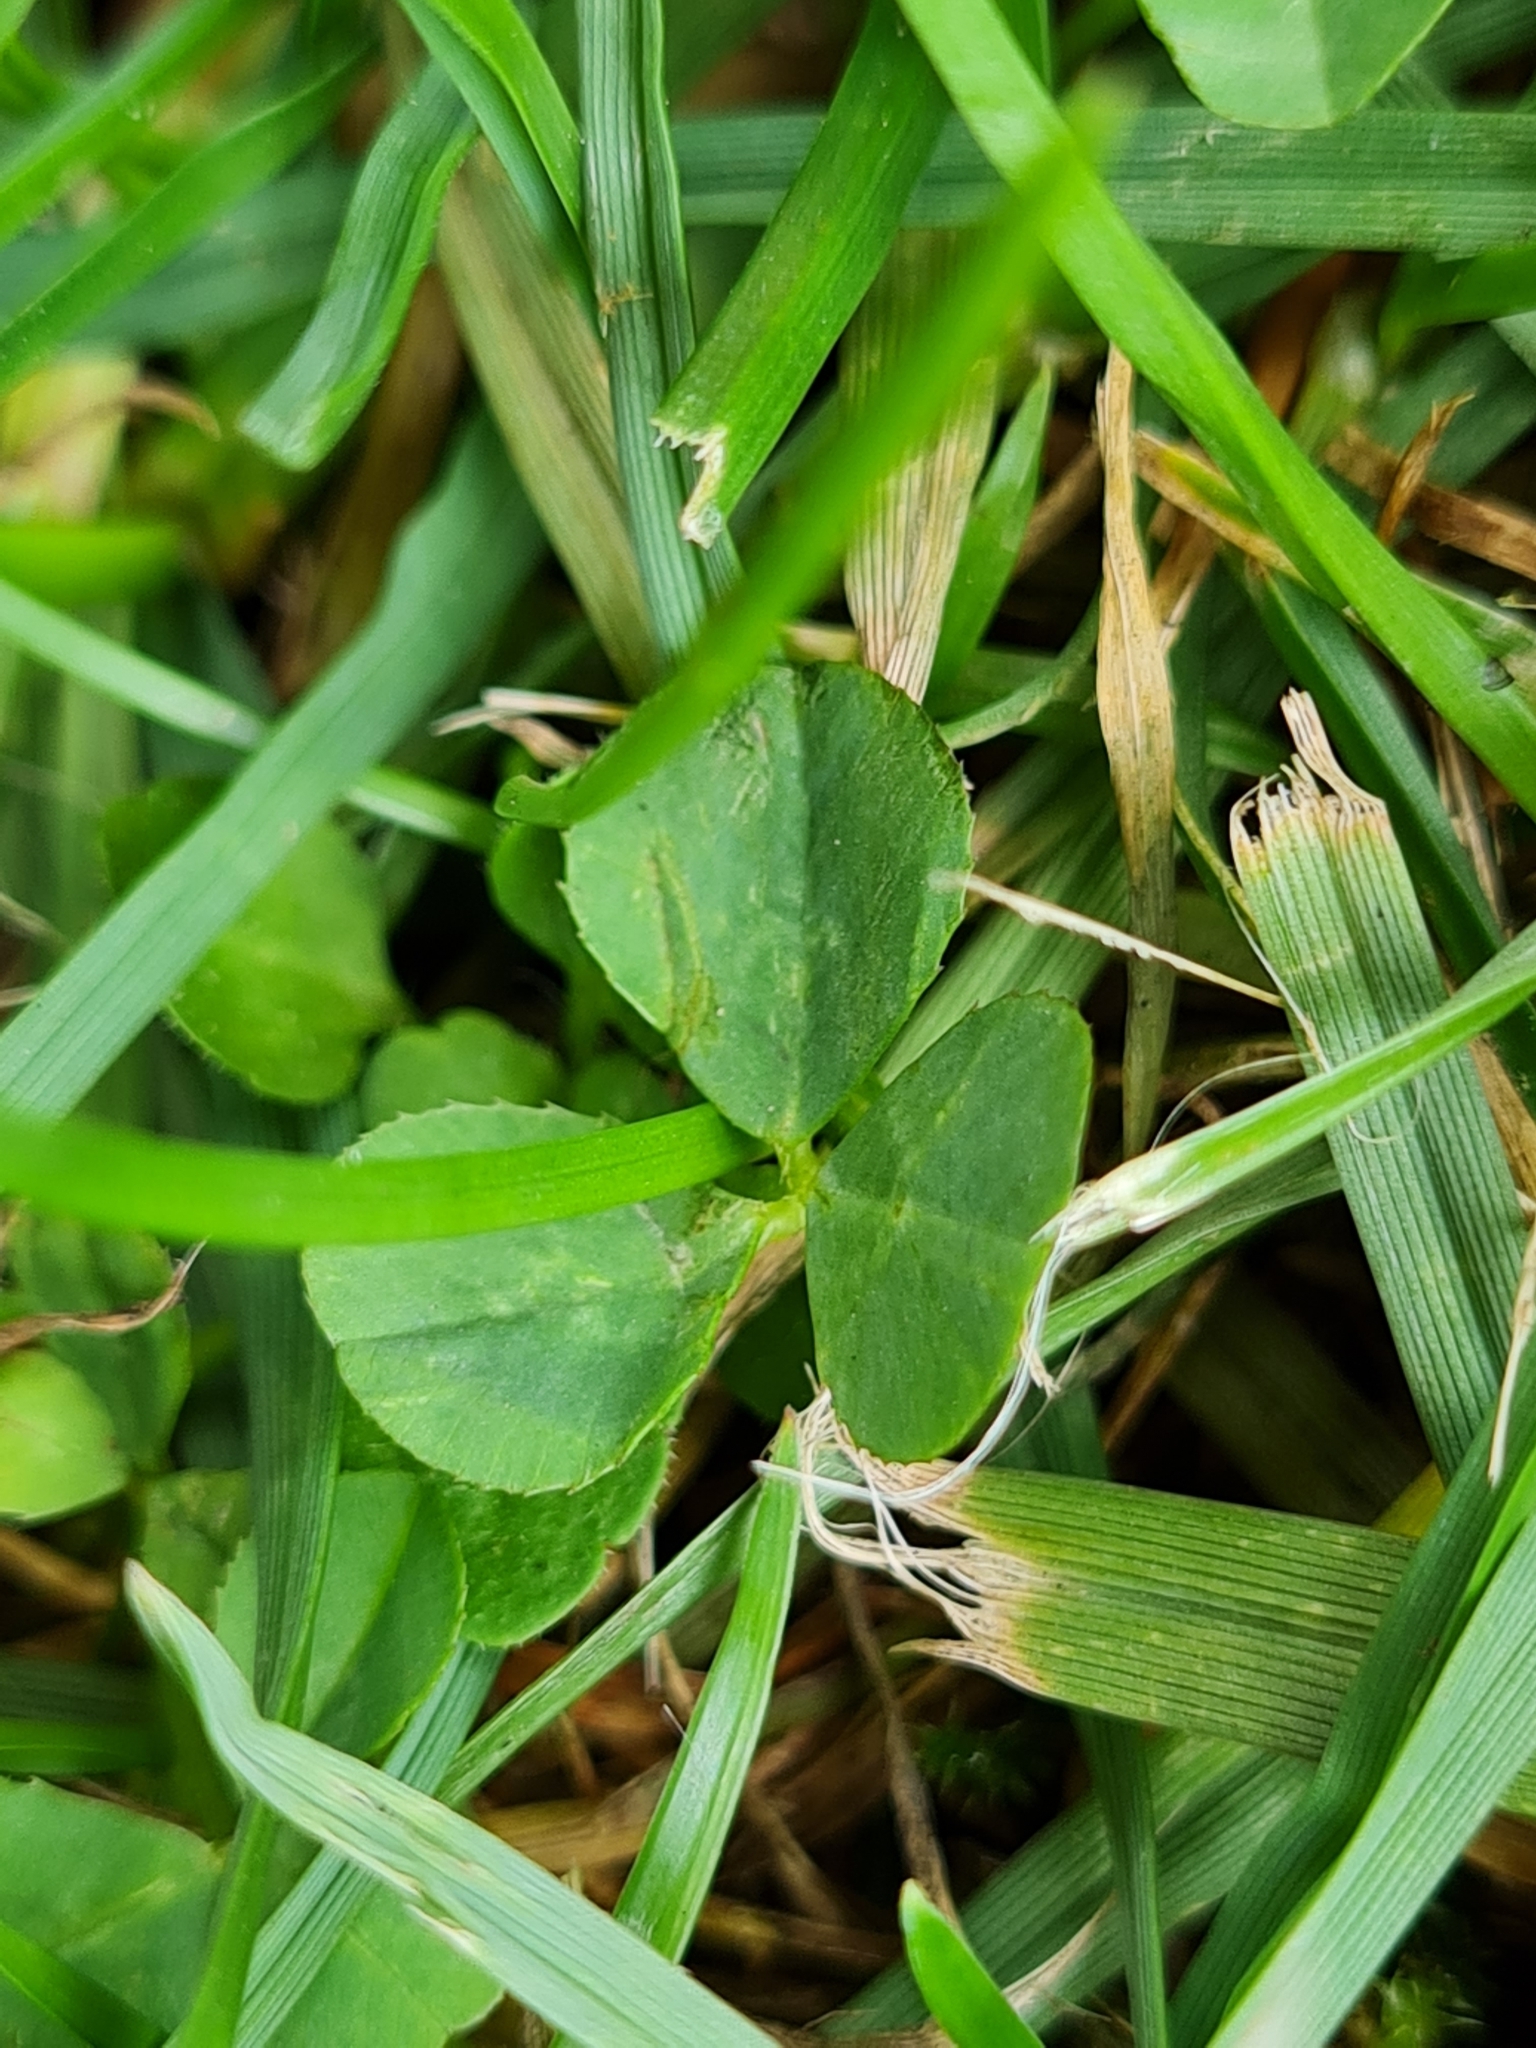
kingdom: Plantae
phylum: Tracheophyta
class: Magnoliopsida
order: Fabales
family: Fabaceae
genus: Trifolium
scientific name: Trifolium repens
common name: White clover
